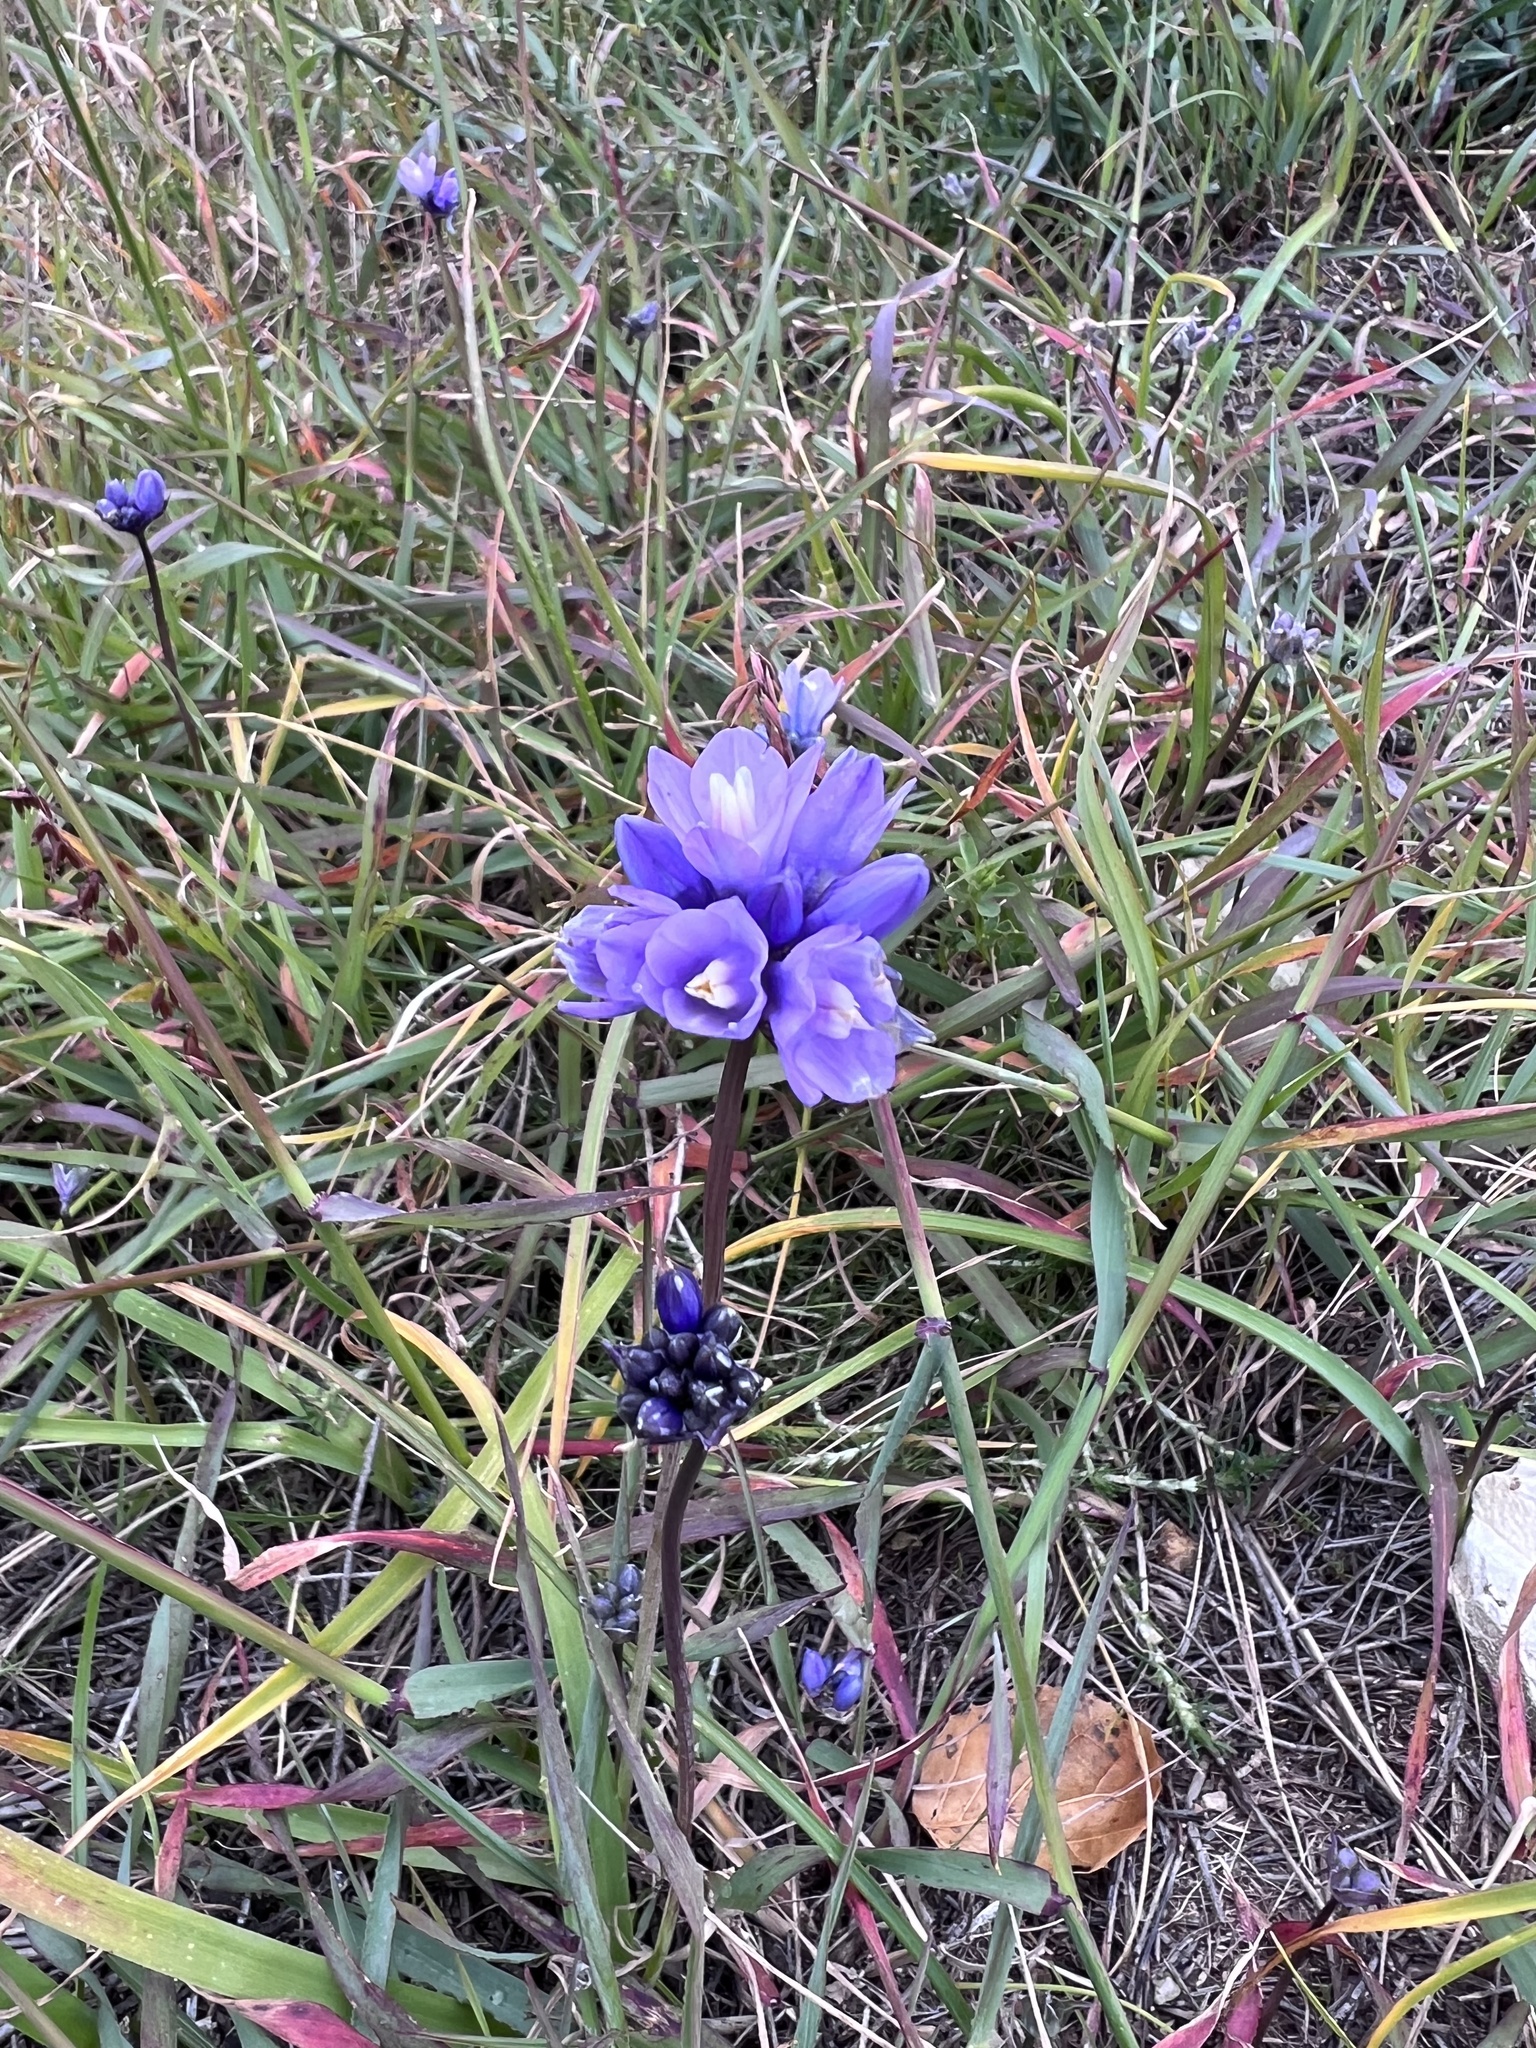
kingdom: Plantae
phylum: Tracheophyta
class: Liliopsida
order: Asparagales
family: Asparagaceae
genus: Dipterostemon
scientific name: Dipterostemon capitatus
